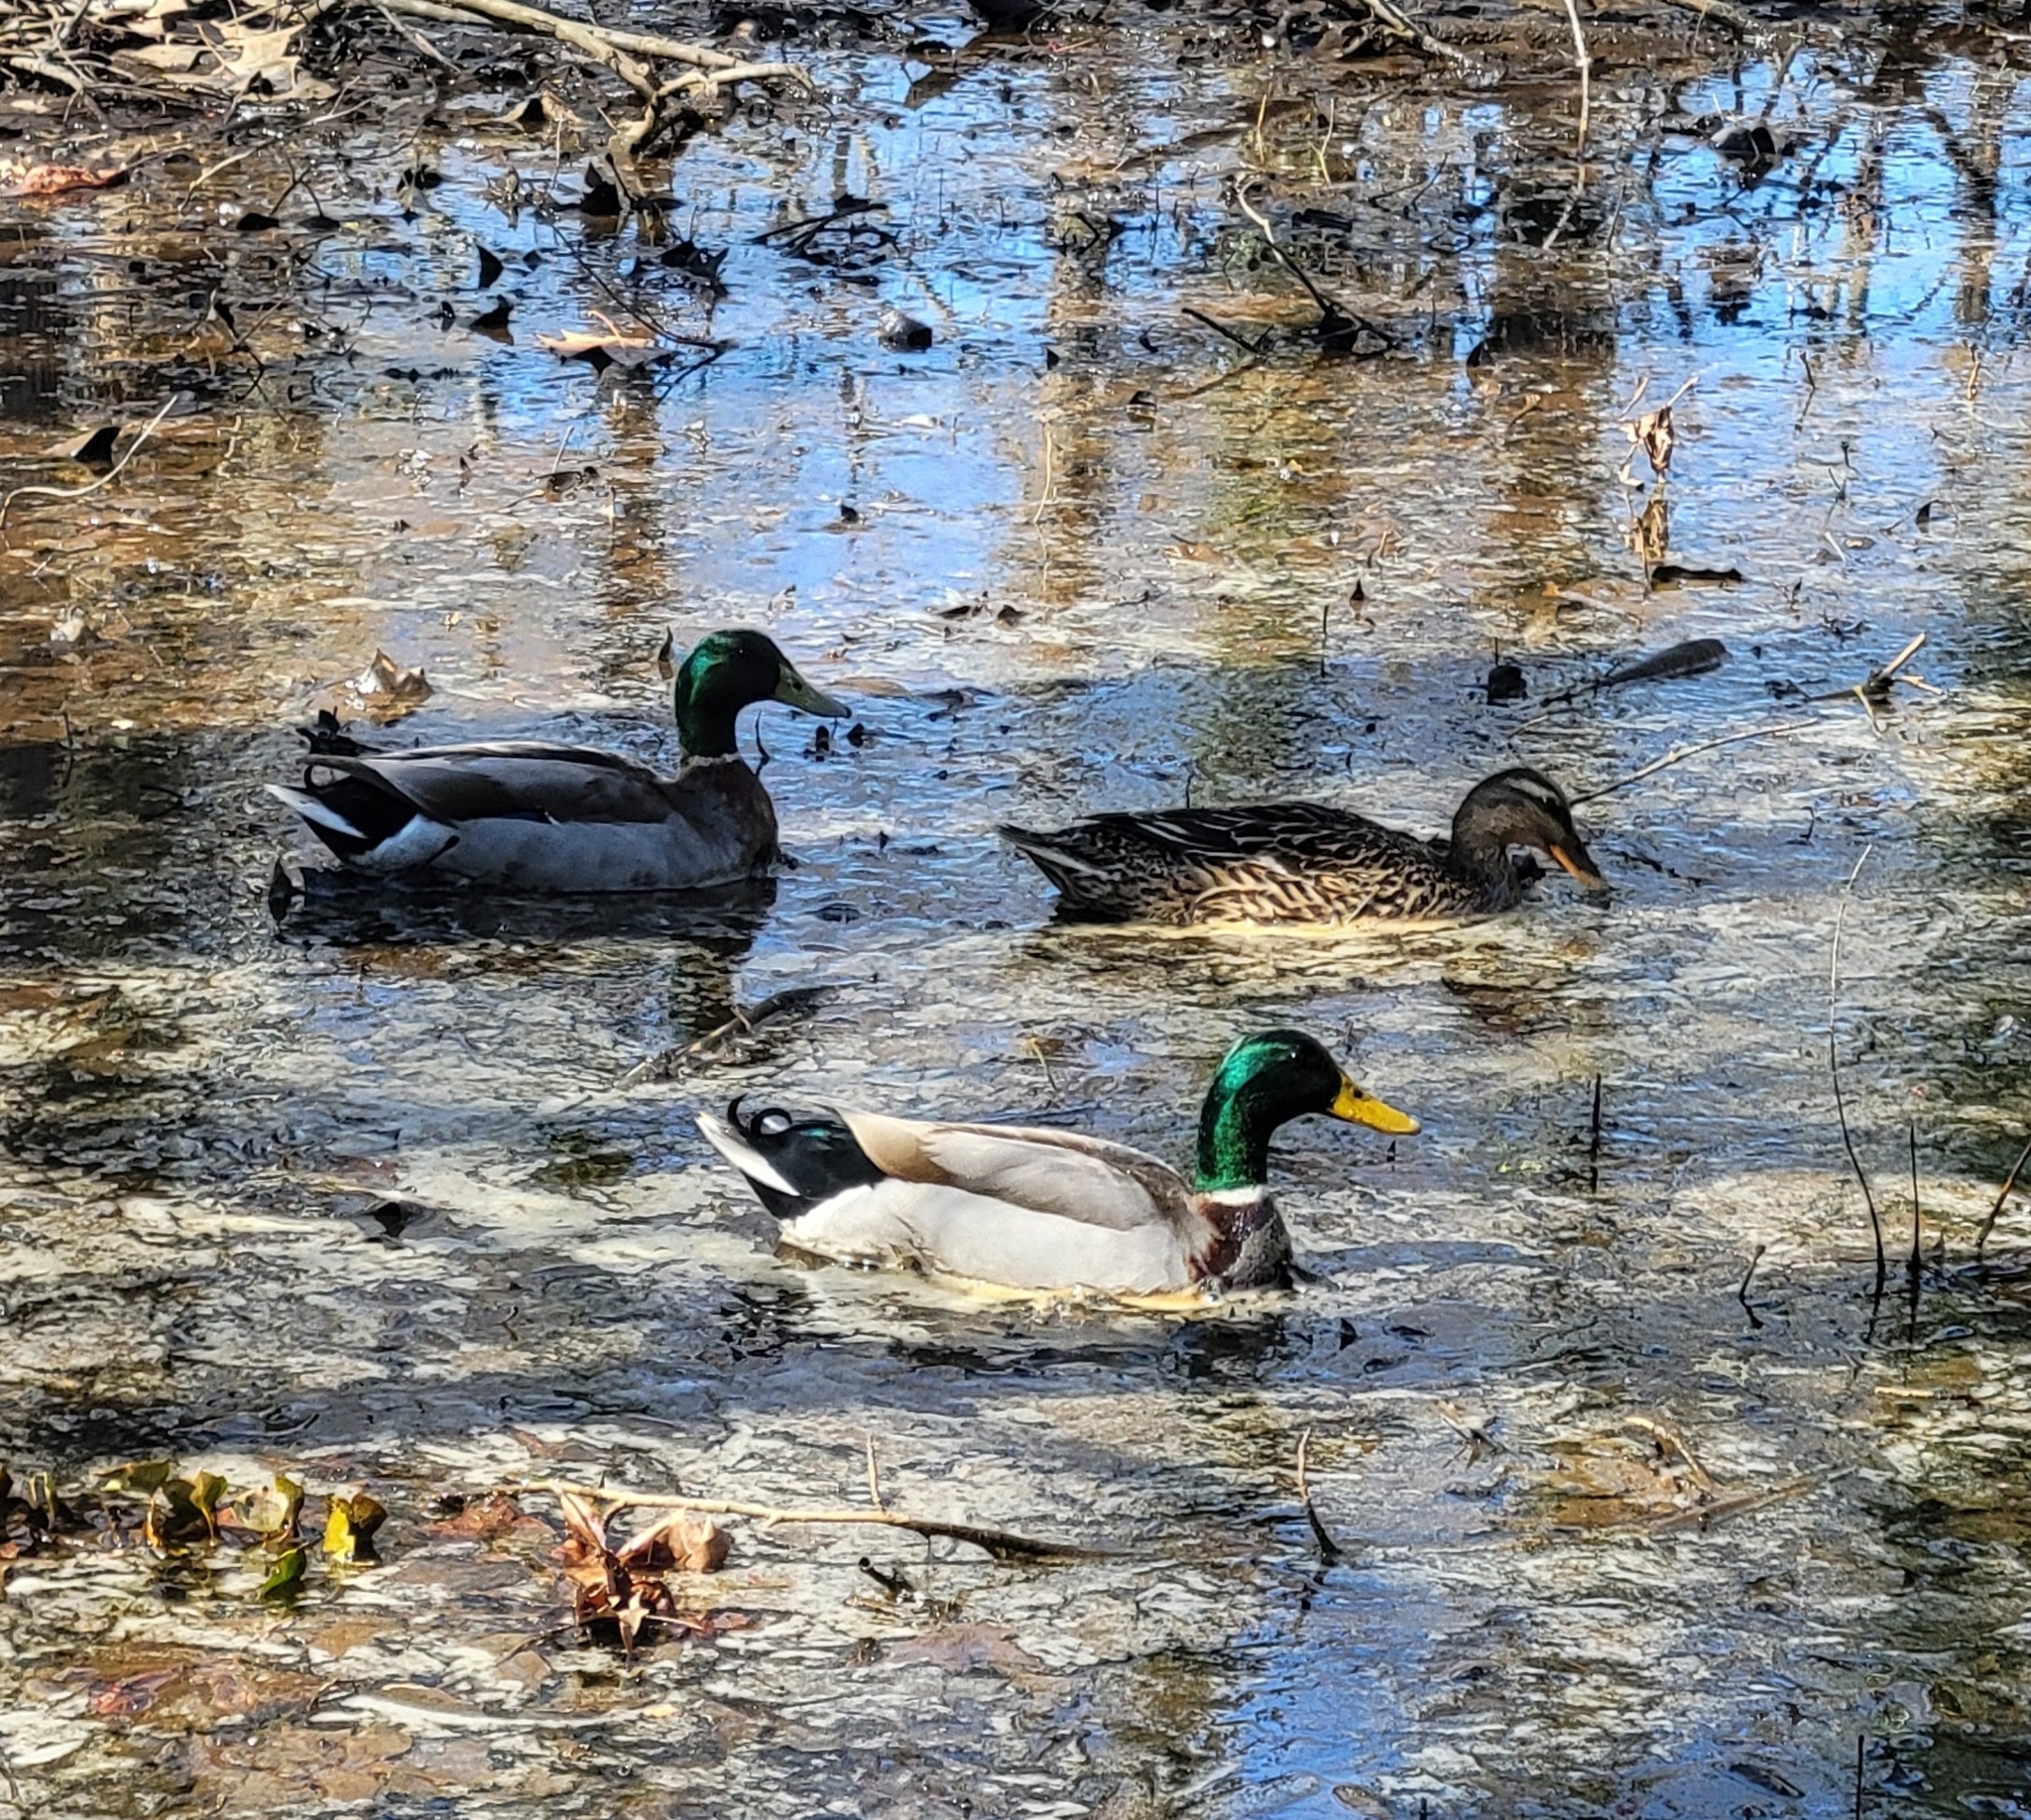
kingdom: Animalia
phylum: Chordata
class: Aves
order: Anseriformes
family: Anatidae
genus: Anas
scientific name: Anas platyrhynchos
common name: Mallard
